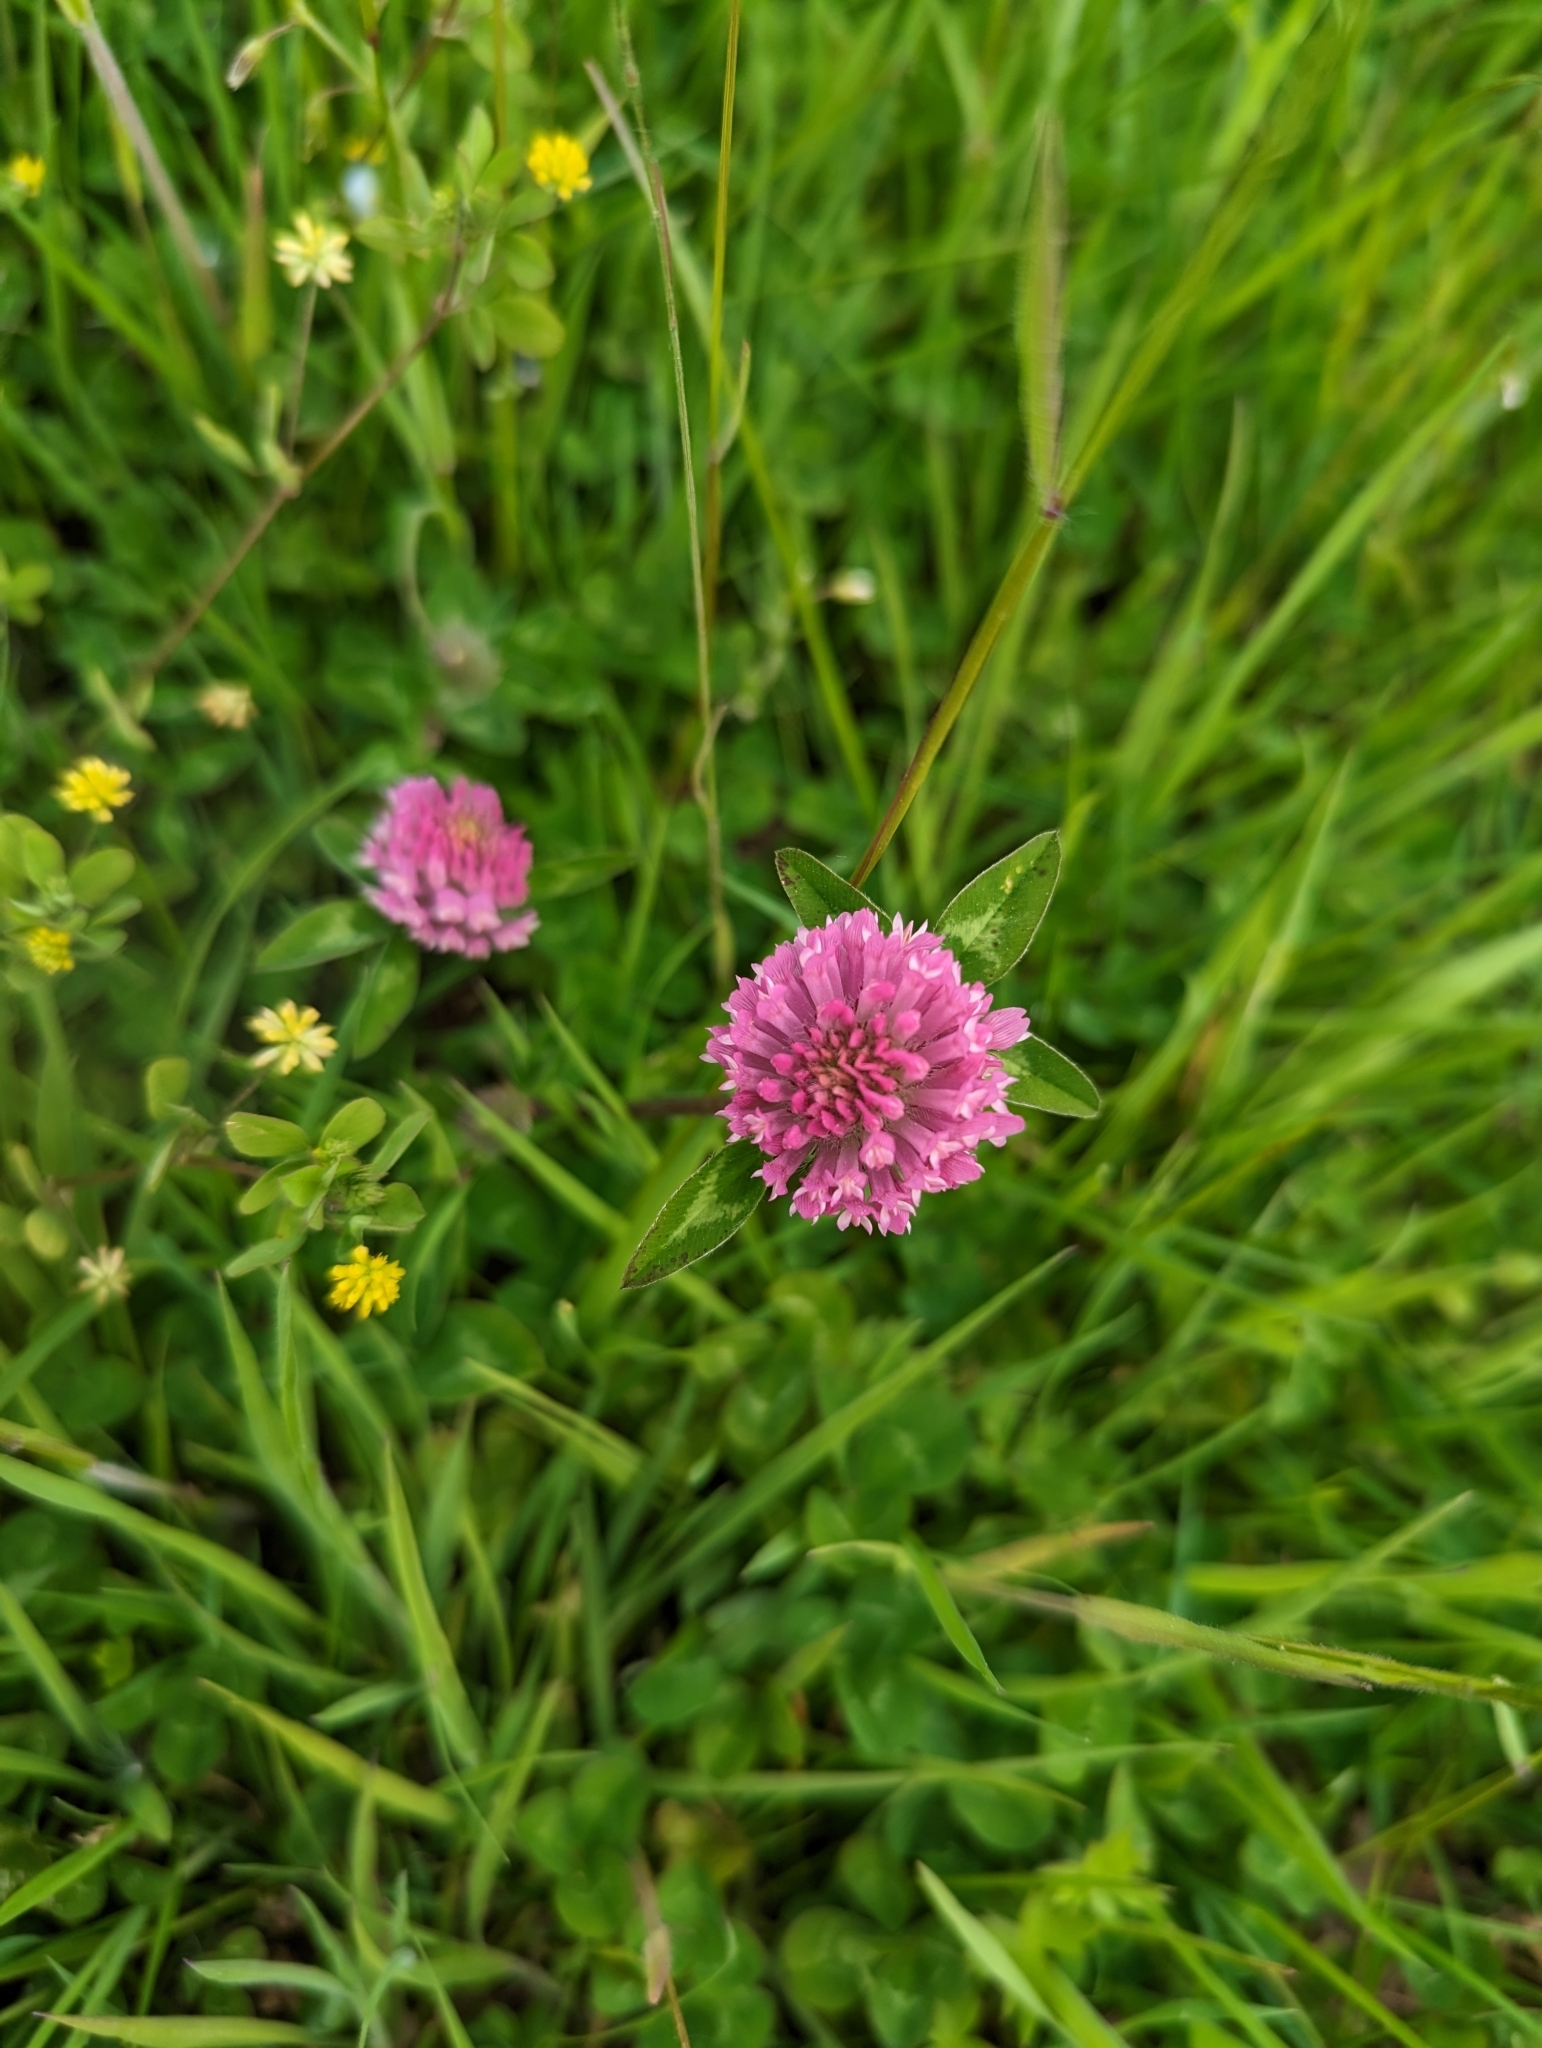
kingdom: Plantae
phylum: Tracheophyta
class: Magnoliopsida
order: Fabales
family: Fabaceae
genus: Trifolium
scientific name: Trifolium pratense
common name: Red clover
